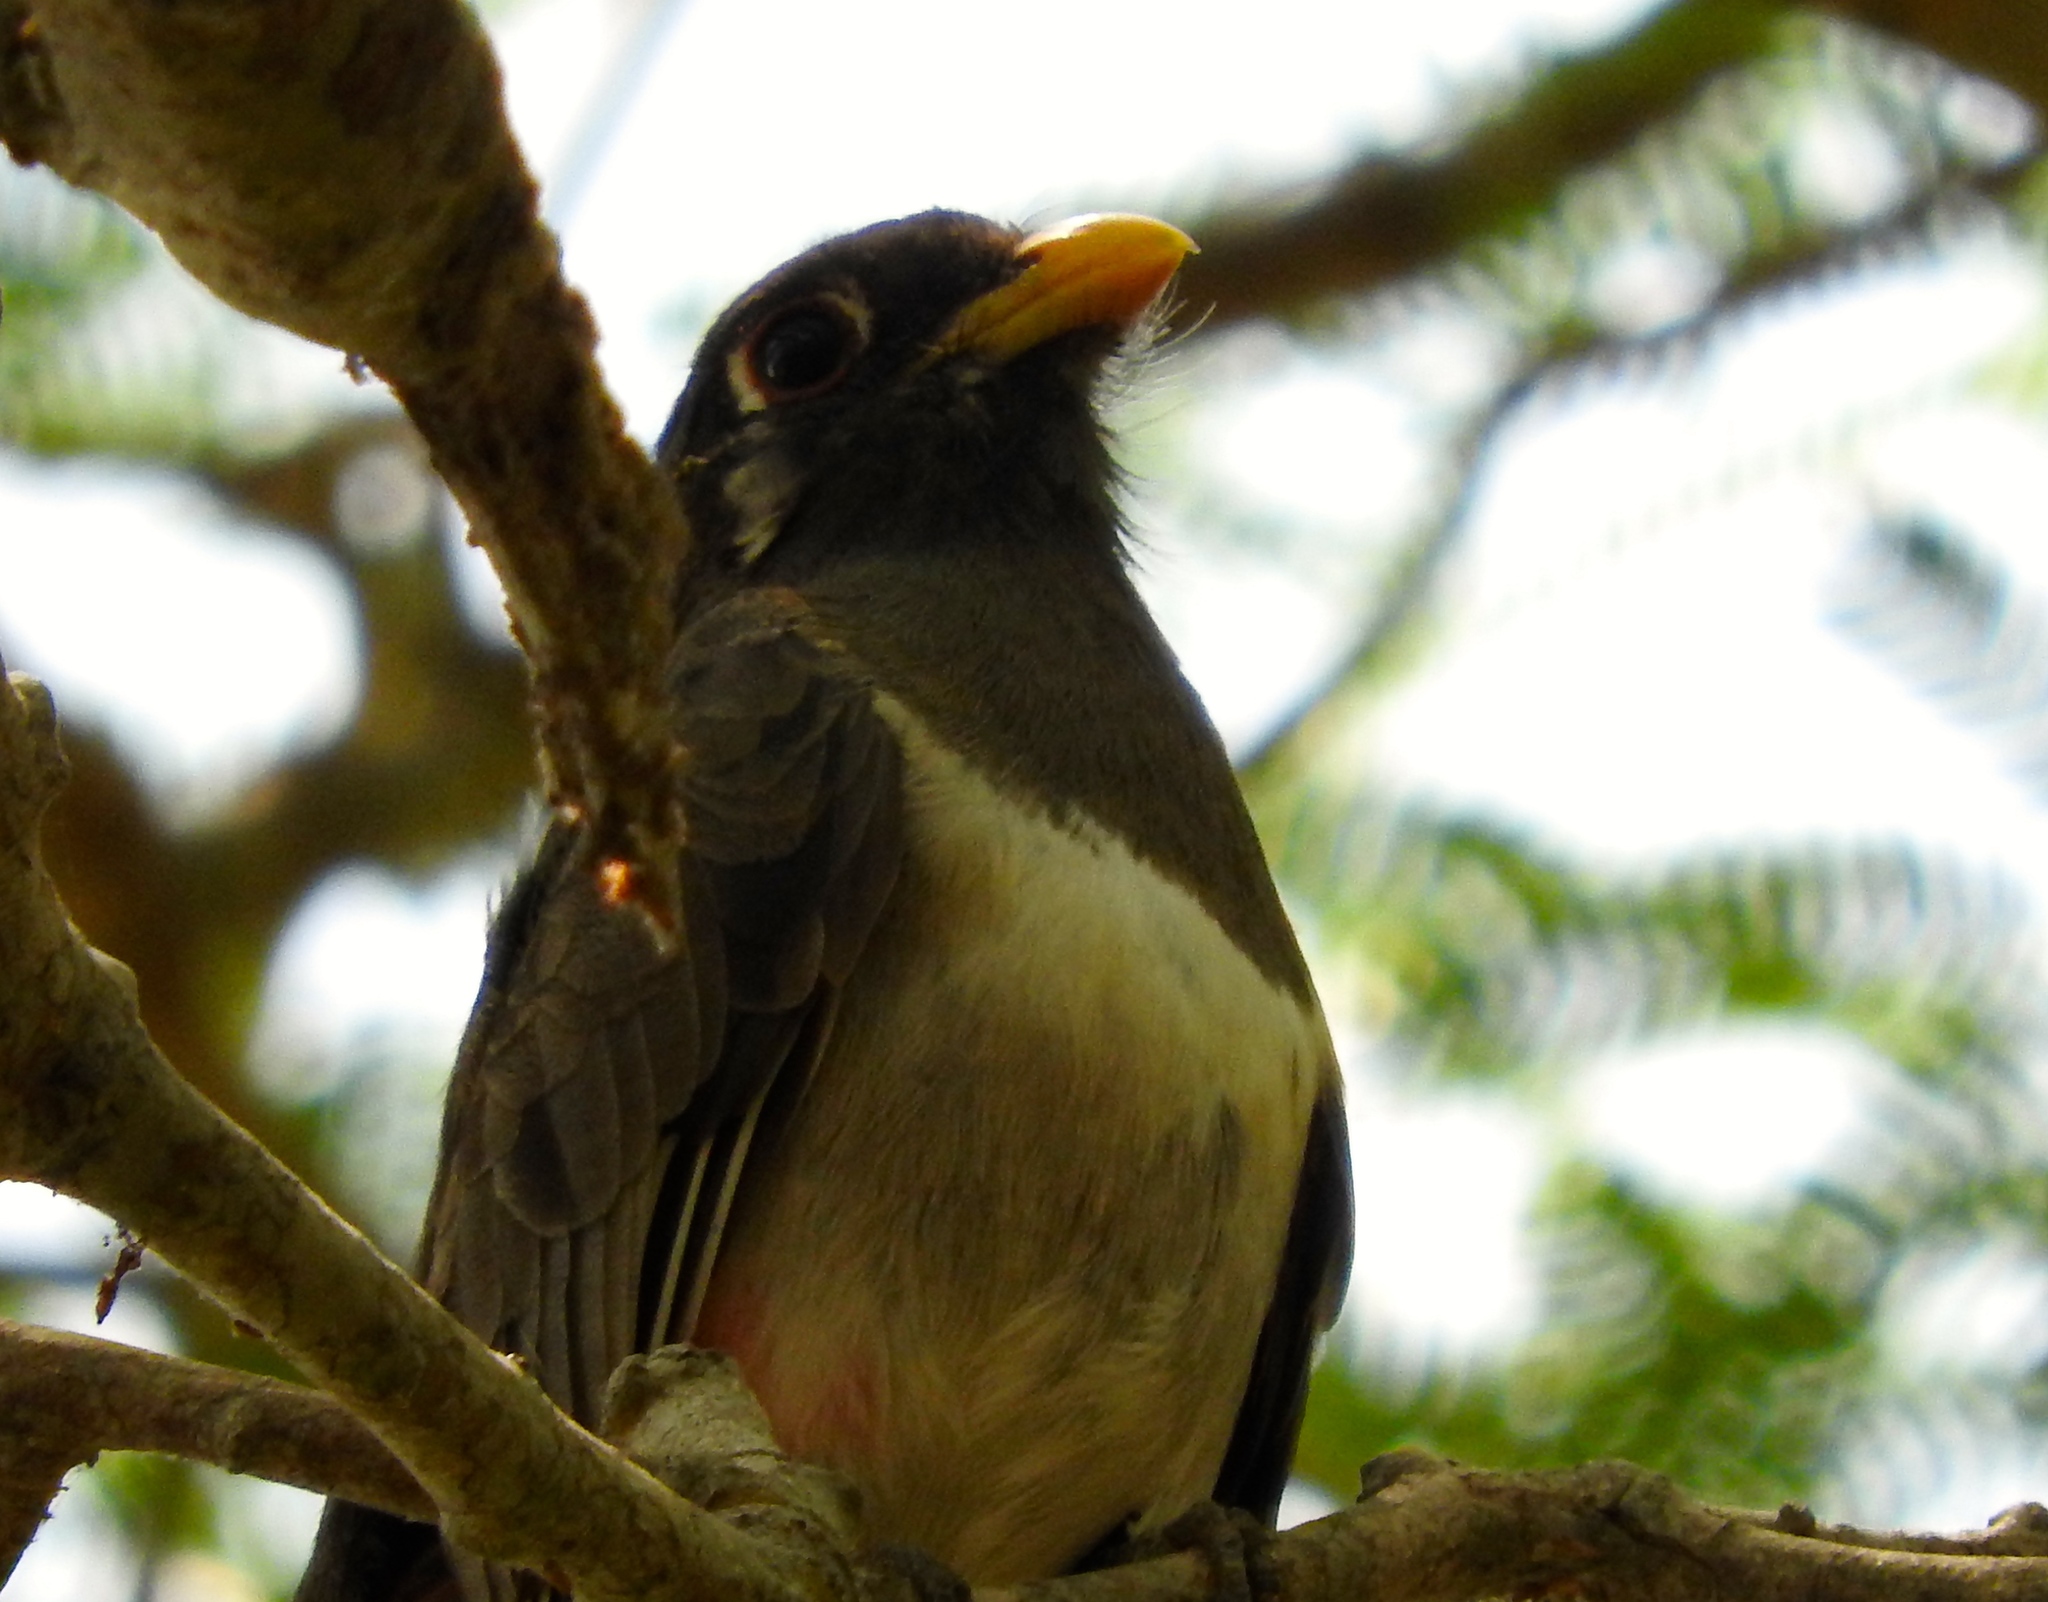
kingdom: Animalia
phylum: Chordata
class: Aves
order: Trogoniformes
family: Trogonidae
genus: Trogon
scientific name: Trogon elegans
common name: Elegant trogon
